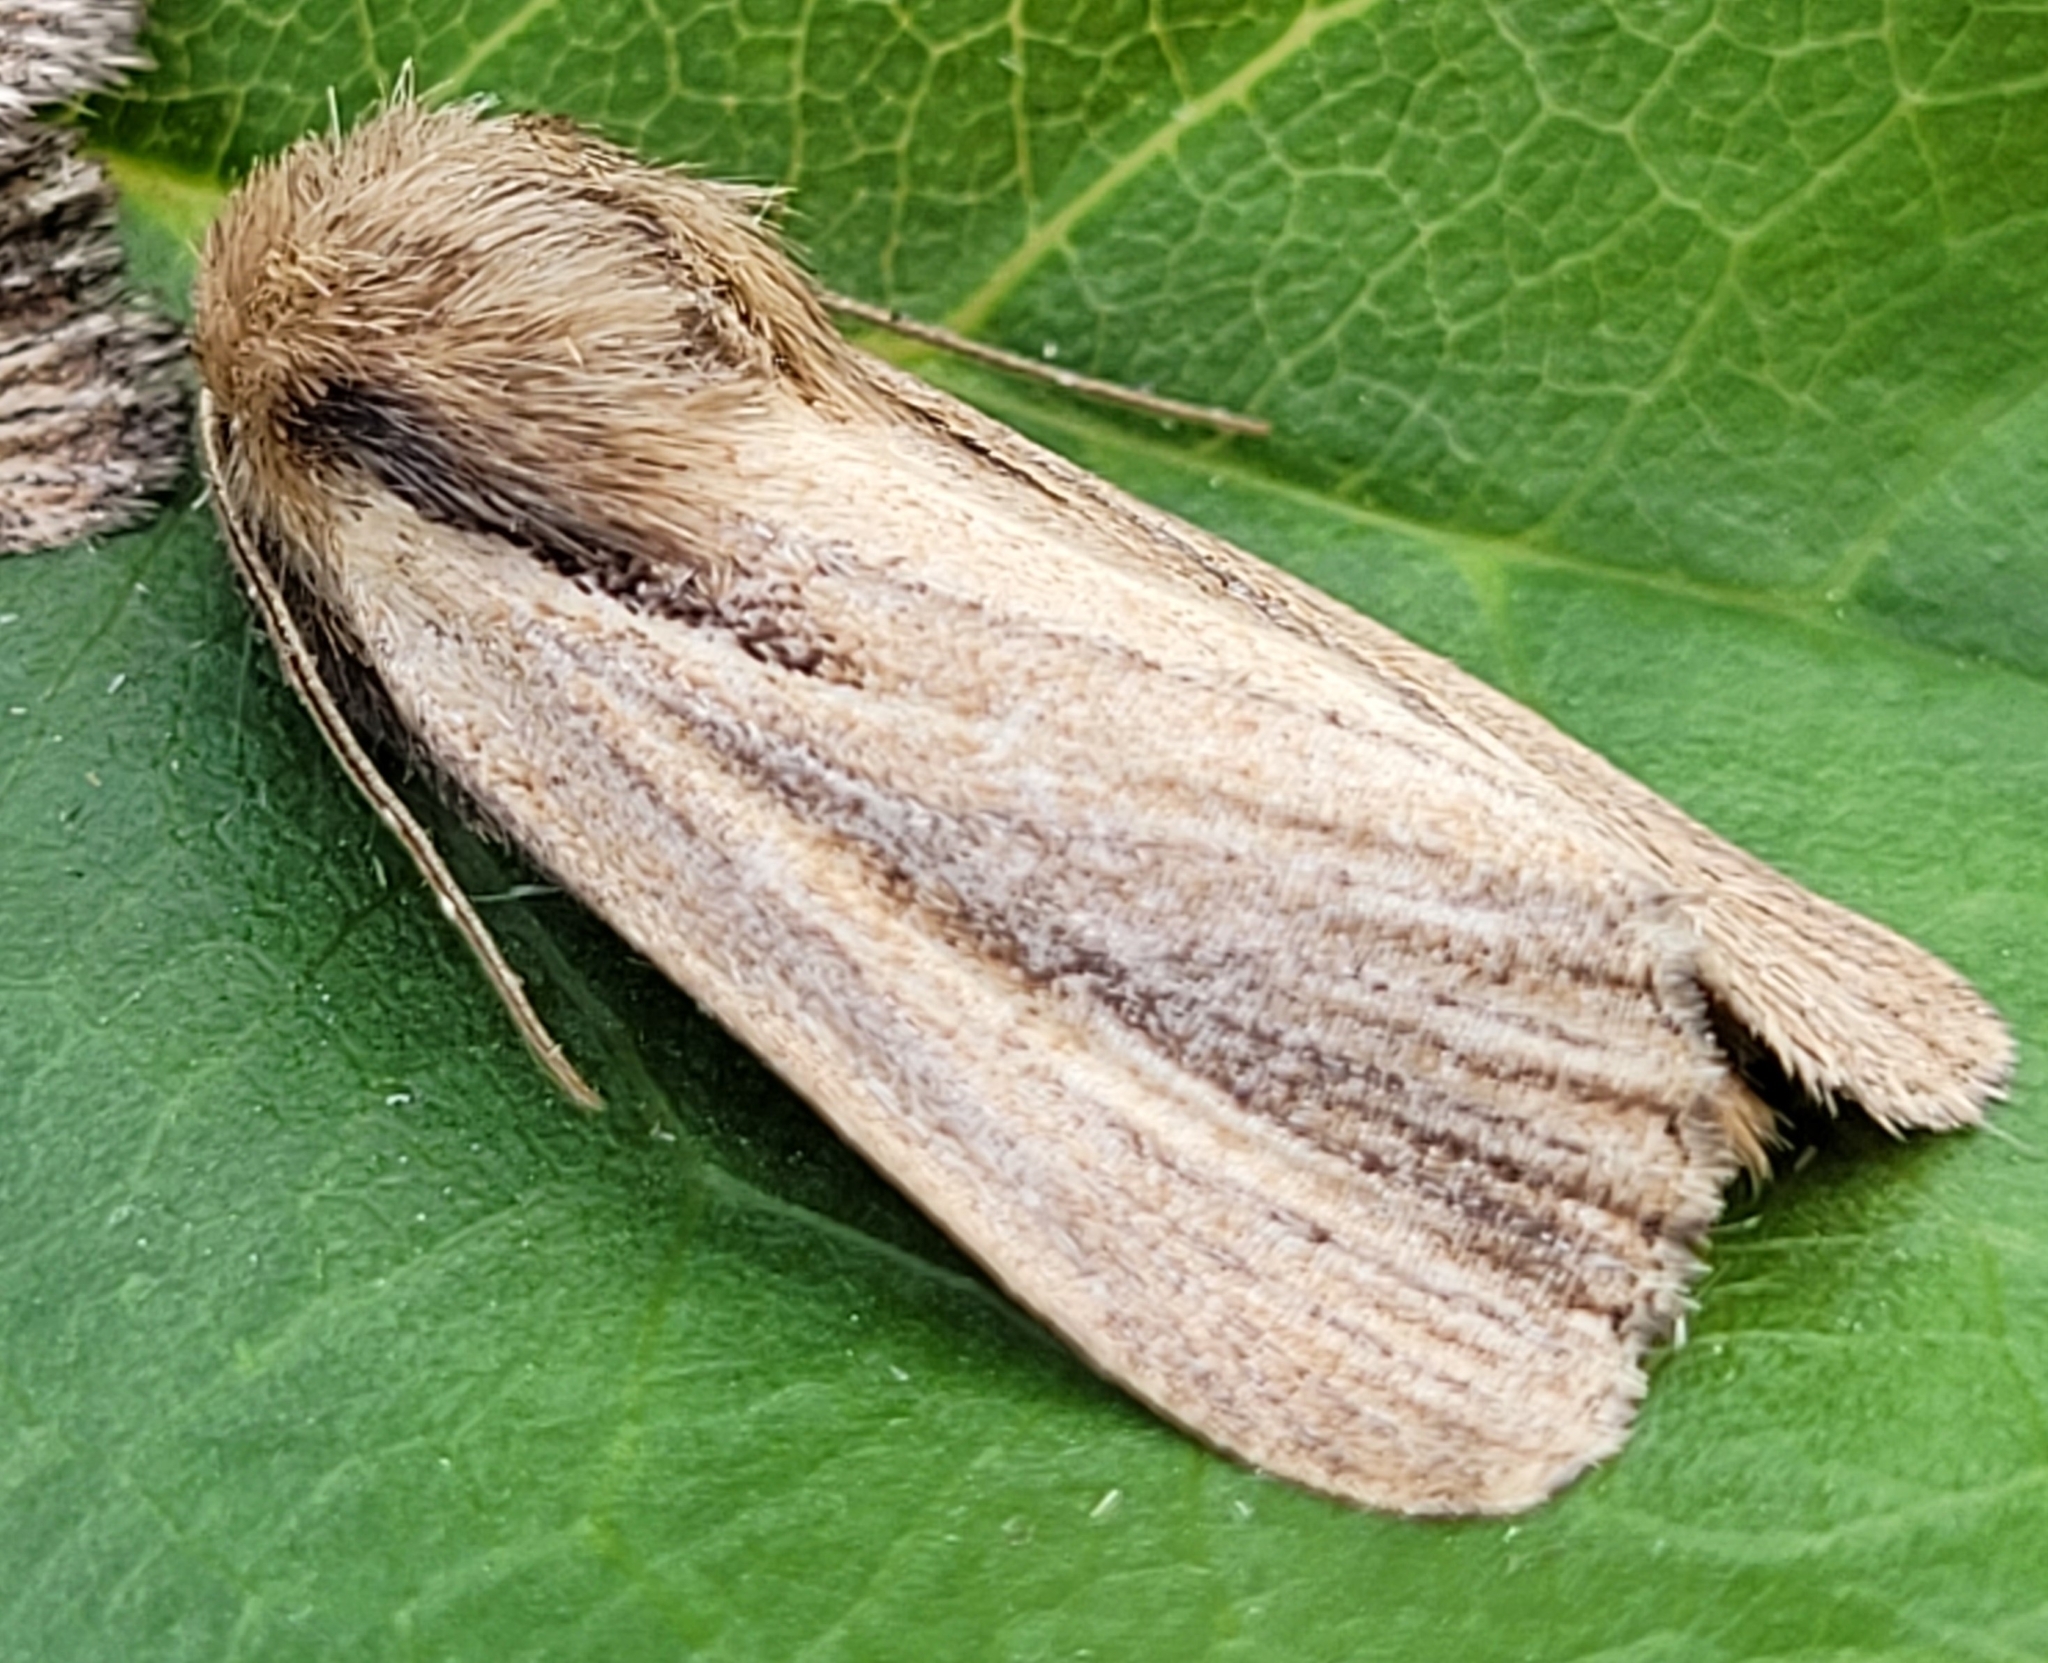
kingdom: Animalia
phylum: Arthropoda
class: Insecta
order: Lepidoptera
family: Noctuidae
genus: Hypocoena
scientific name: Hypocoena rufostrigata
